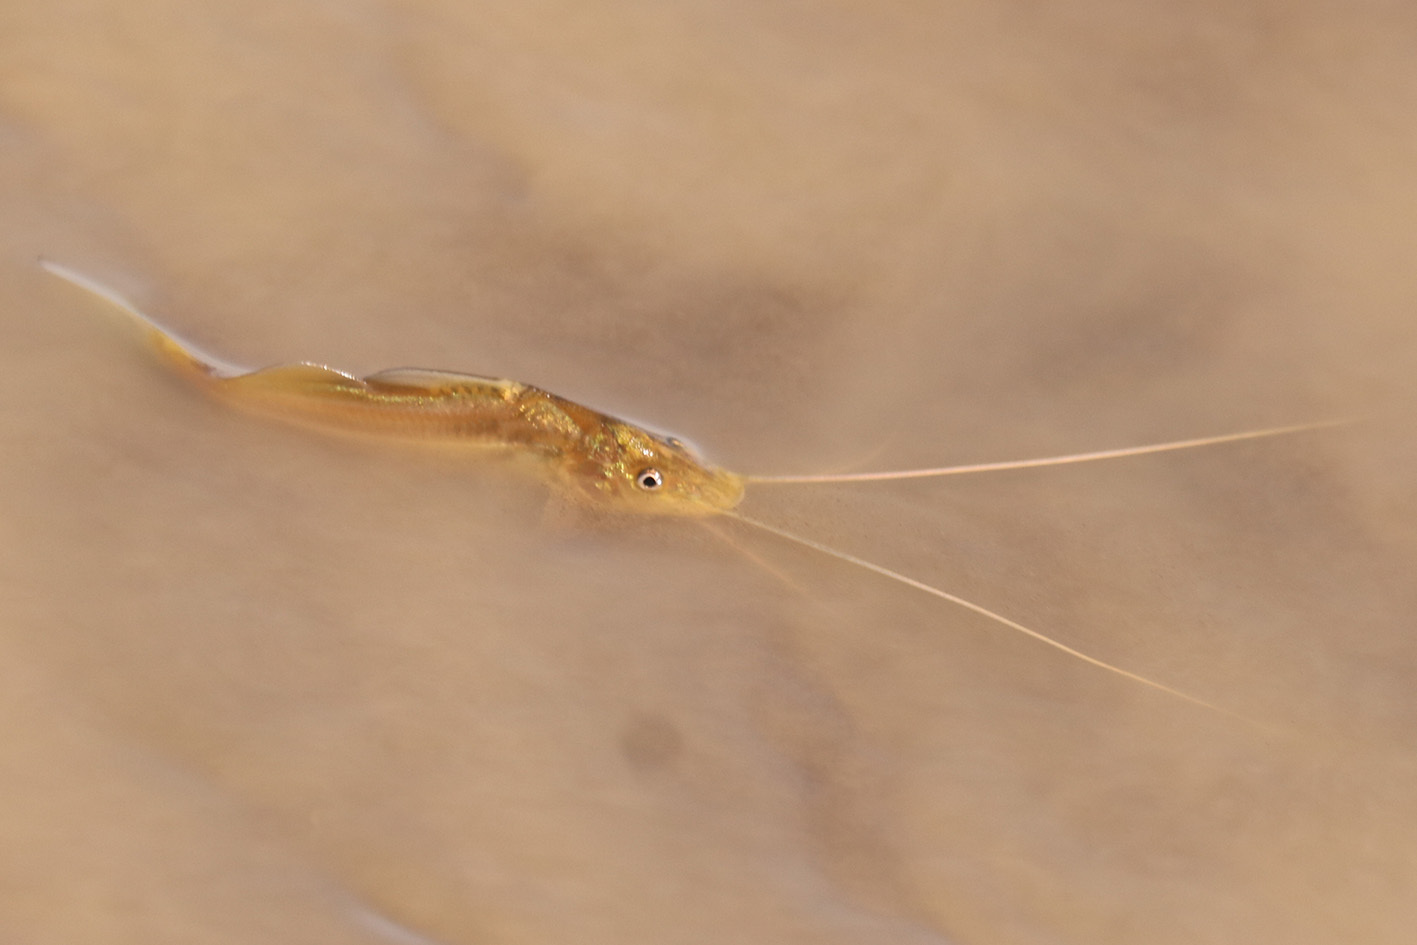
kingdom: Animalia
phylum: Chordata
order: Siluriformes
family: Pimelodidae
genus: Pimelodus
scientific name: Pimelodus maculatus
